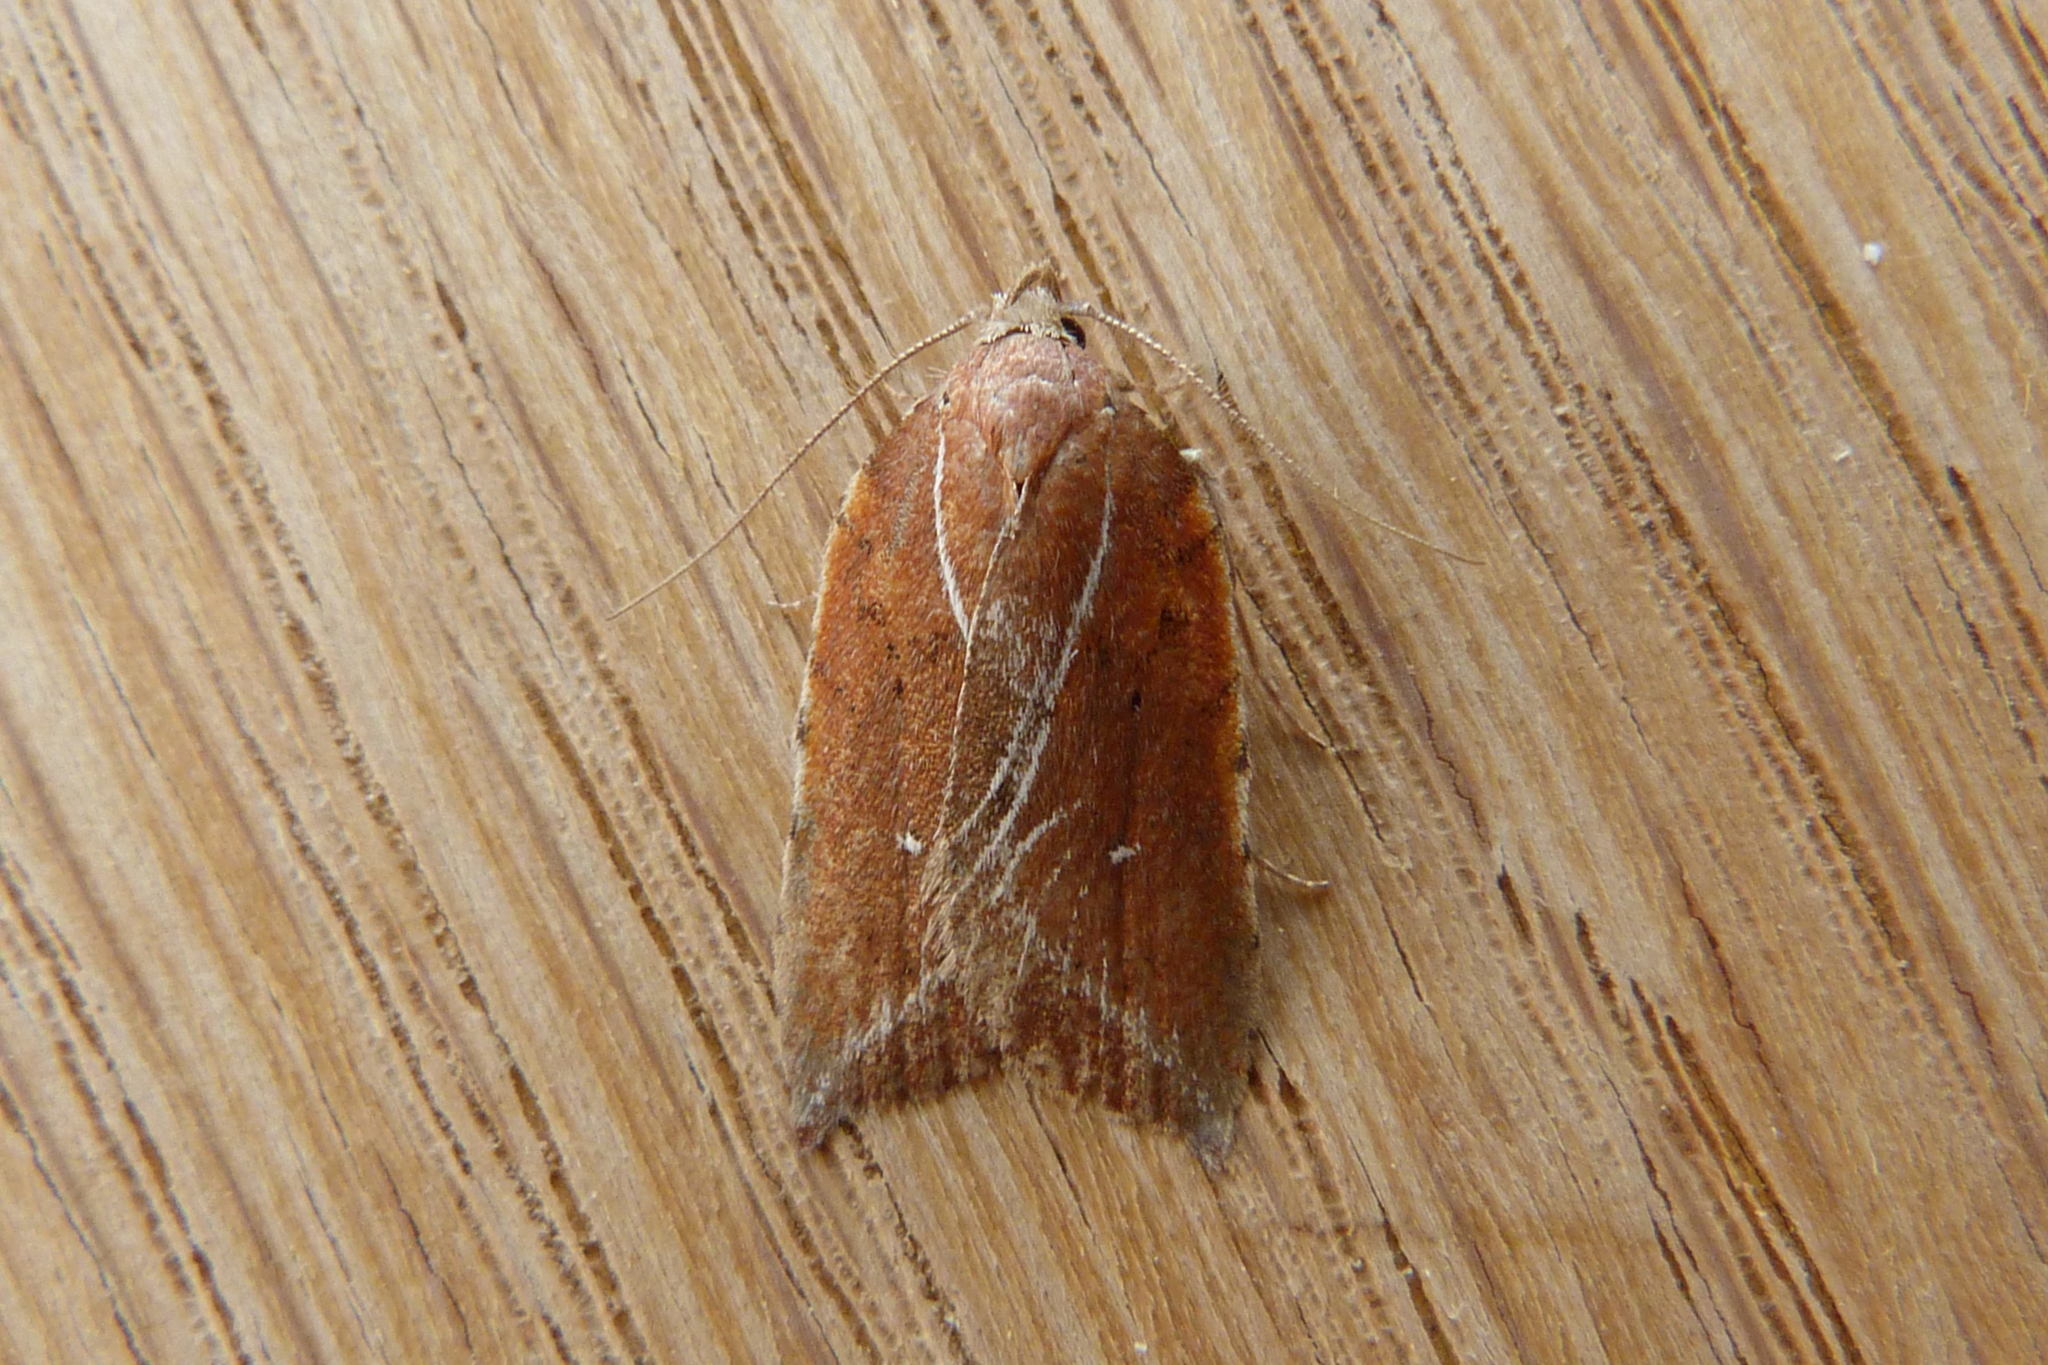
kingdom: Animalia
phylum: Arthropoda
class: Insecta
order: Lepidoptera
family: Oecophoridae
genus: Arachnographa
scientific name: Arachnographa micrastrella
